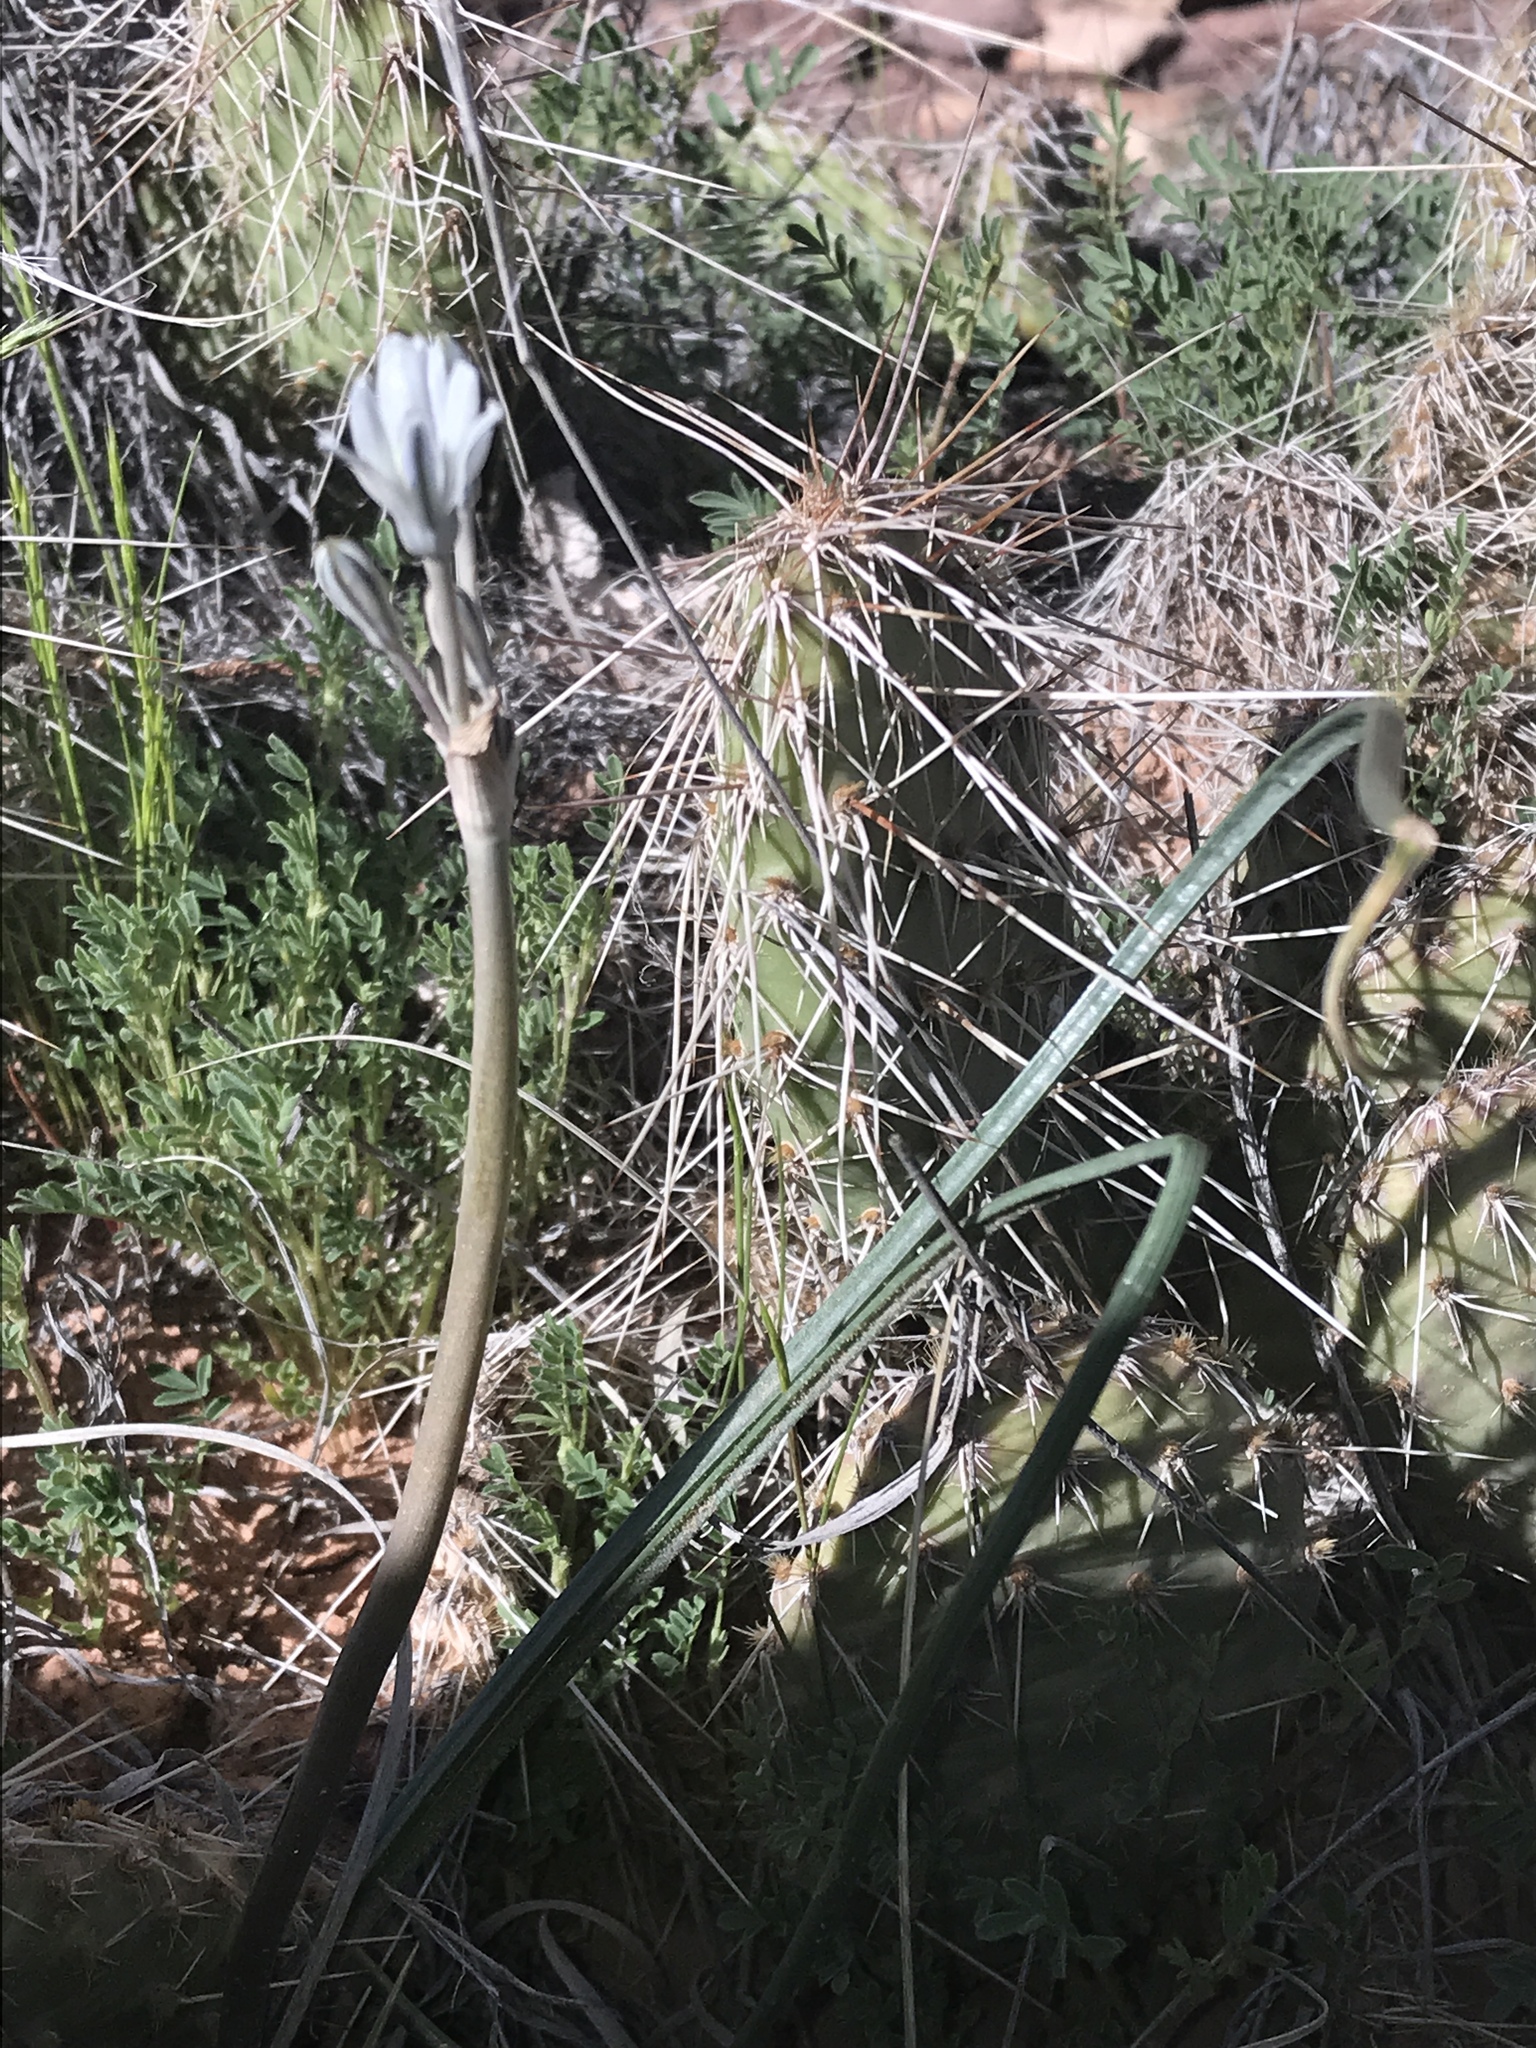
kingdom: Plantae
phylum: Tracheophyta
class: Liliopsida
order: Asparagales
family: Asparagaceae
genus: Androstephium
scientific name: Androstephium breviflorum
